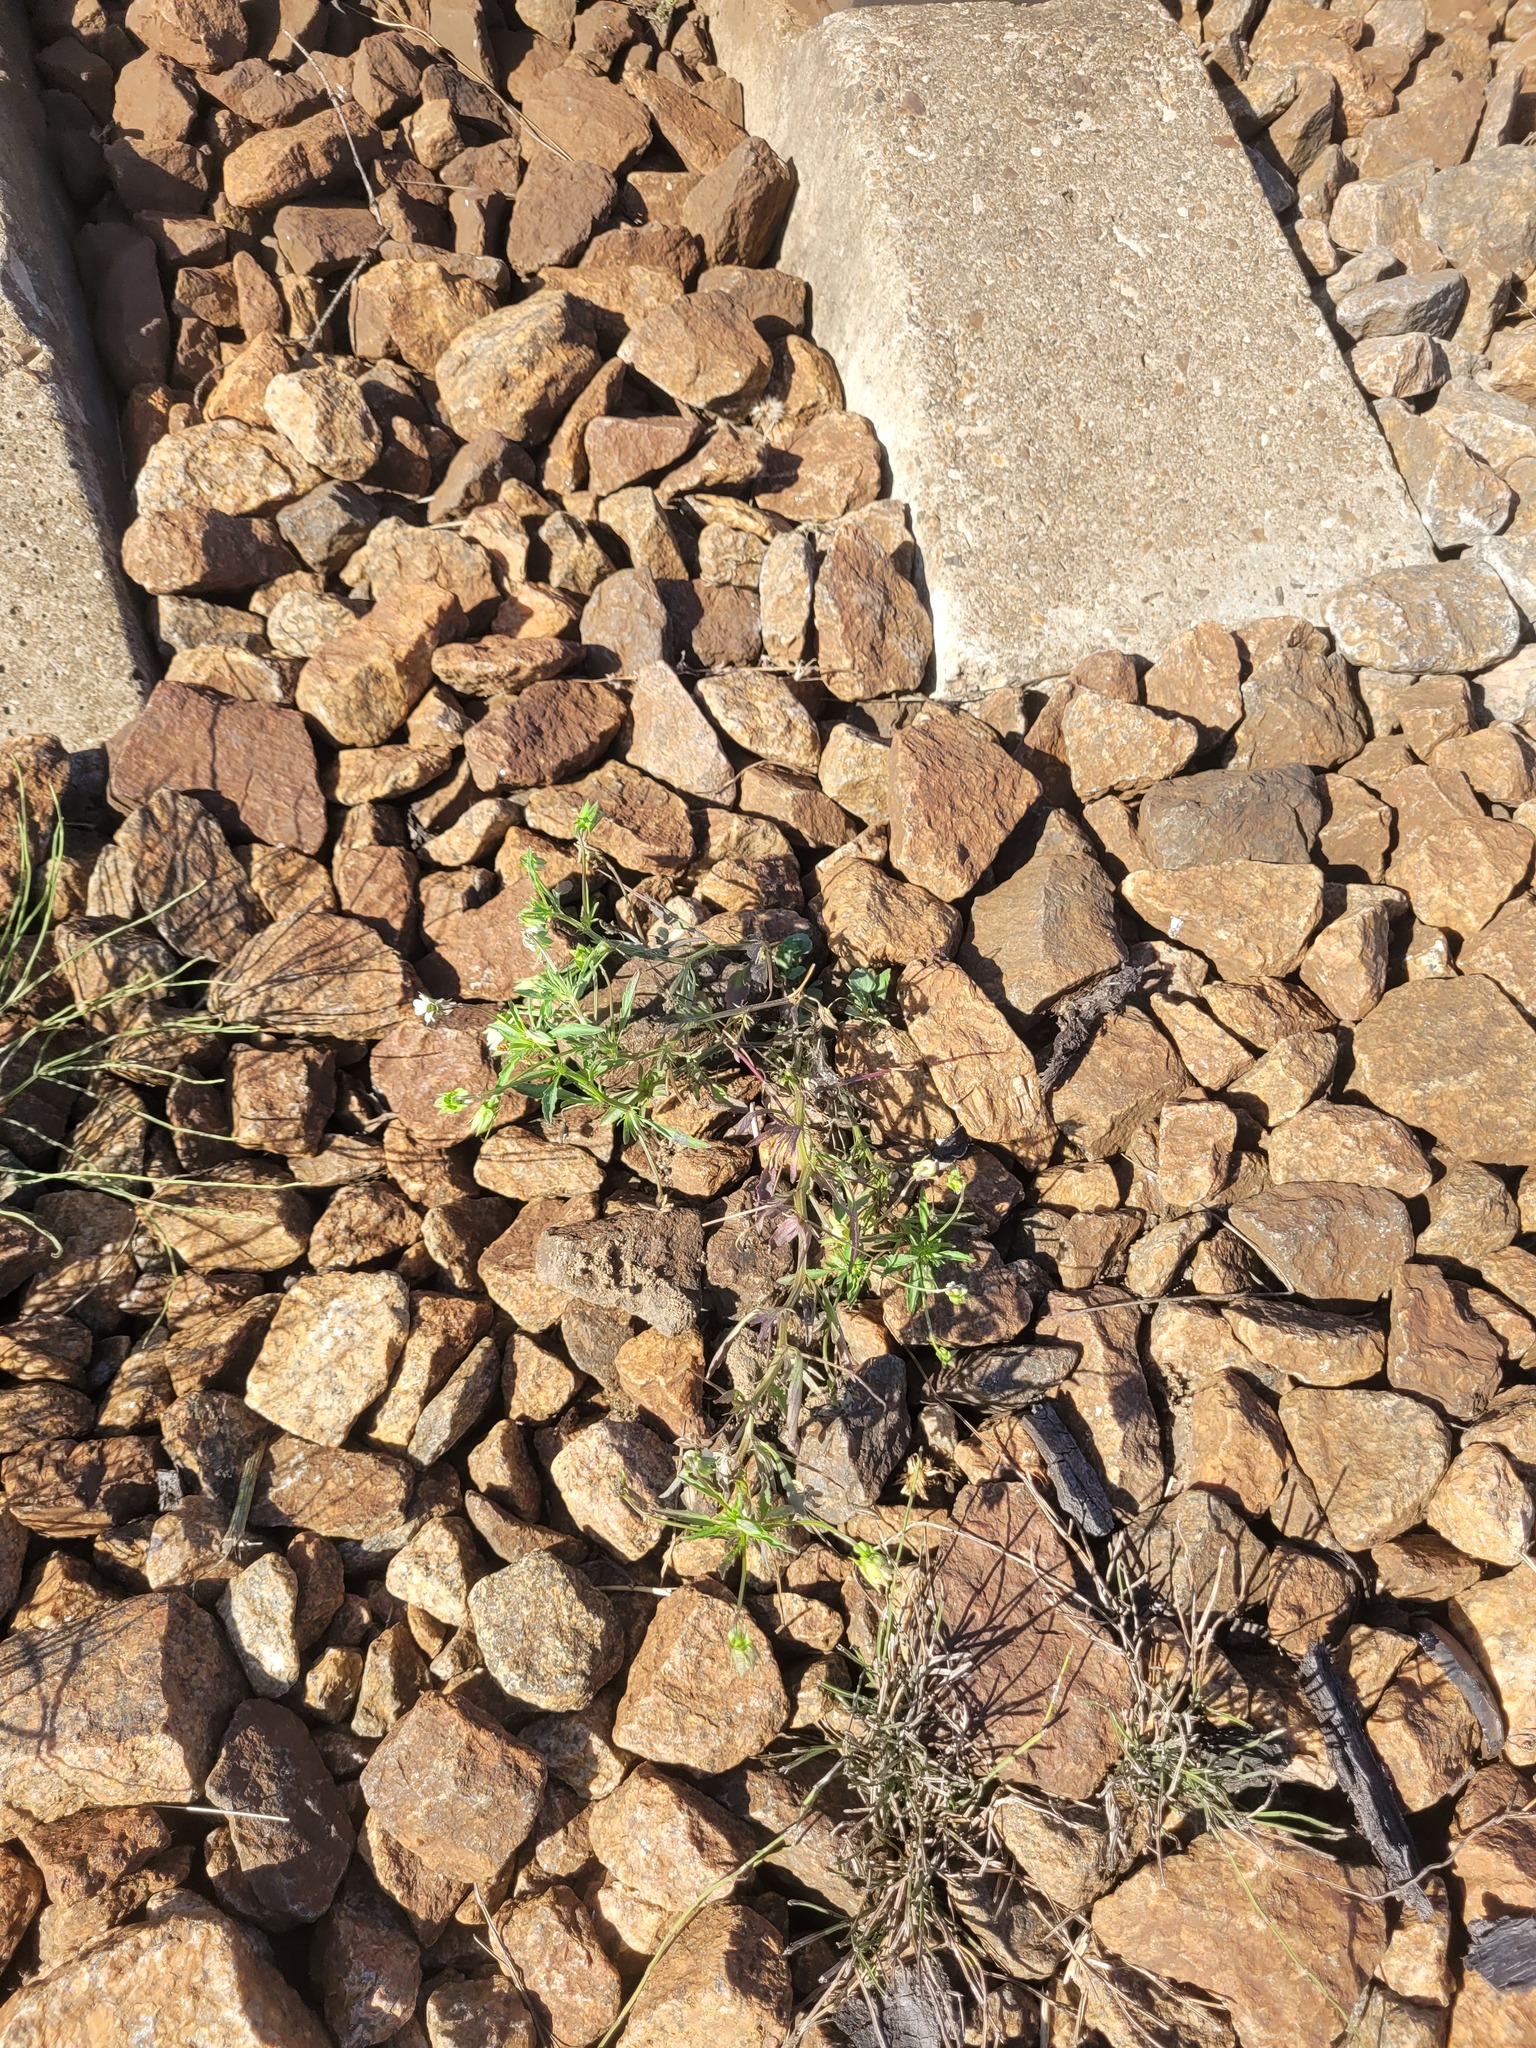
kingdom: Plantae
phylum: Tracheophyta
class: Magnoliopsida
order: Malpighiales
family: Violaceae
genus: Viola
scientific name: Viola arvensis
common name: Field pansy
